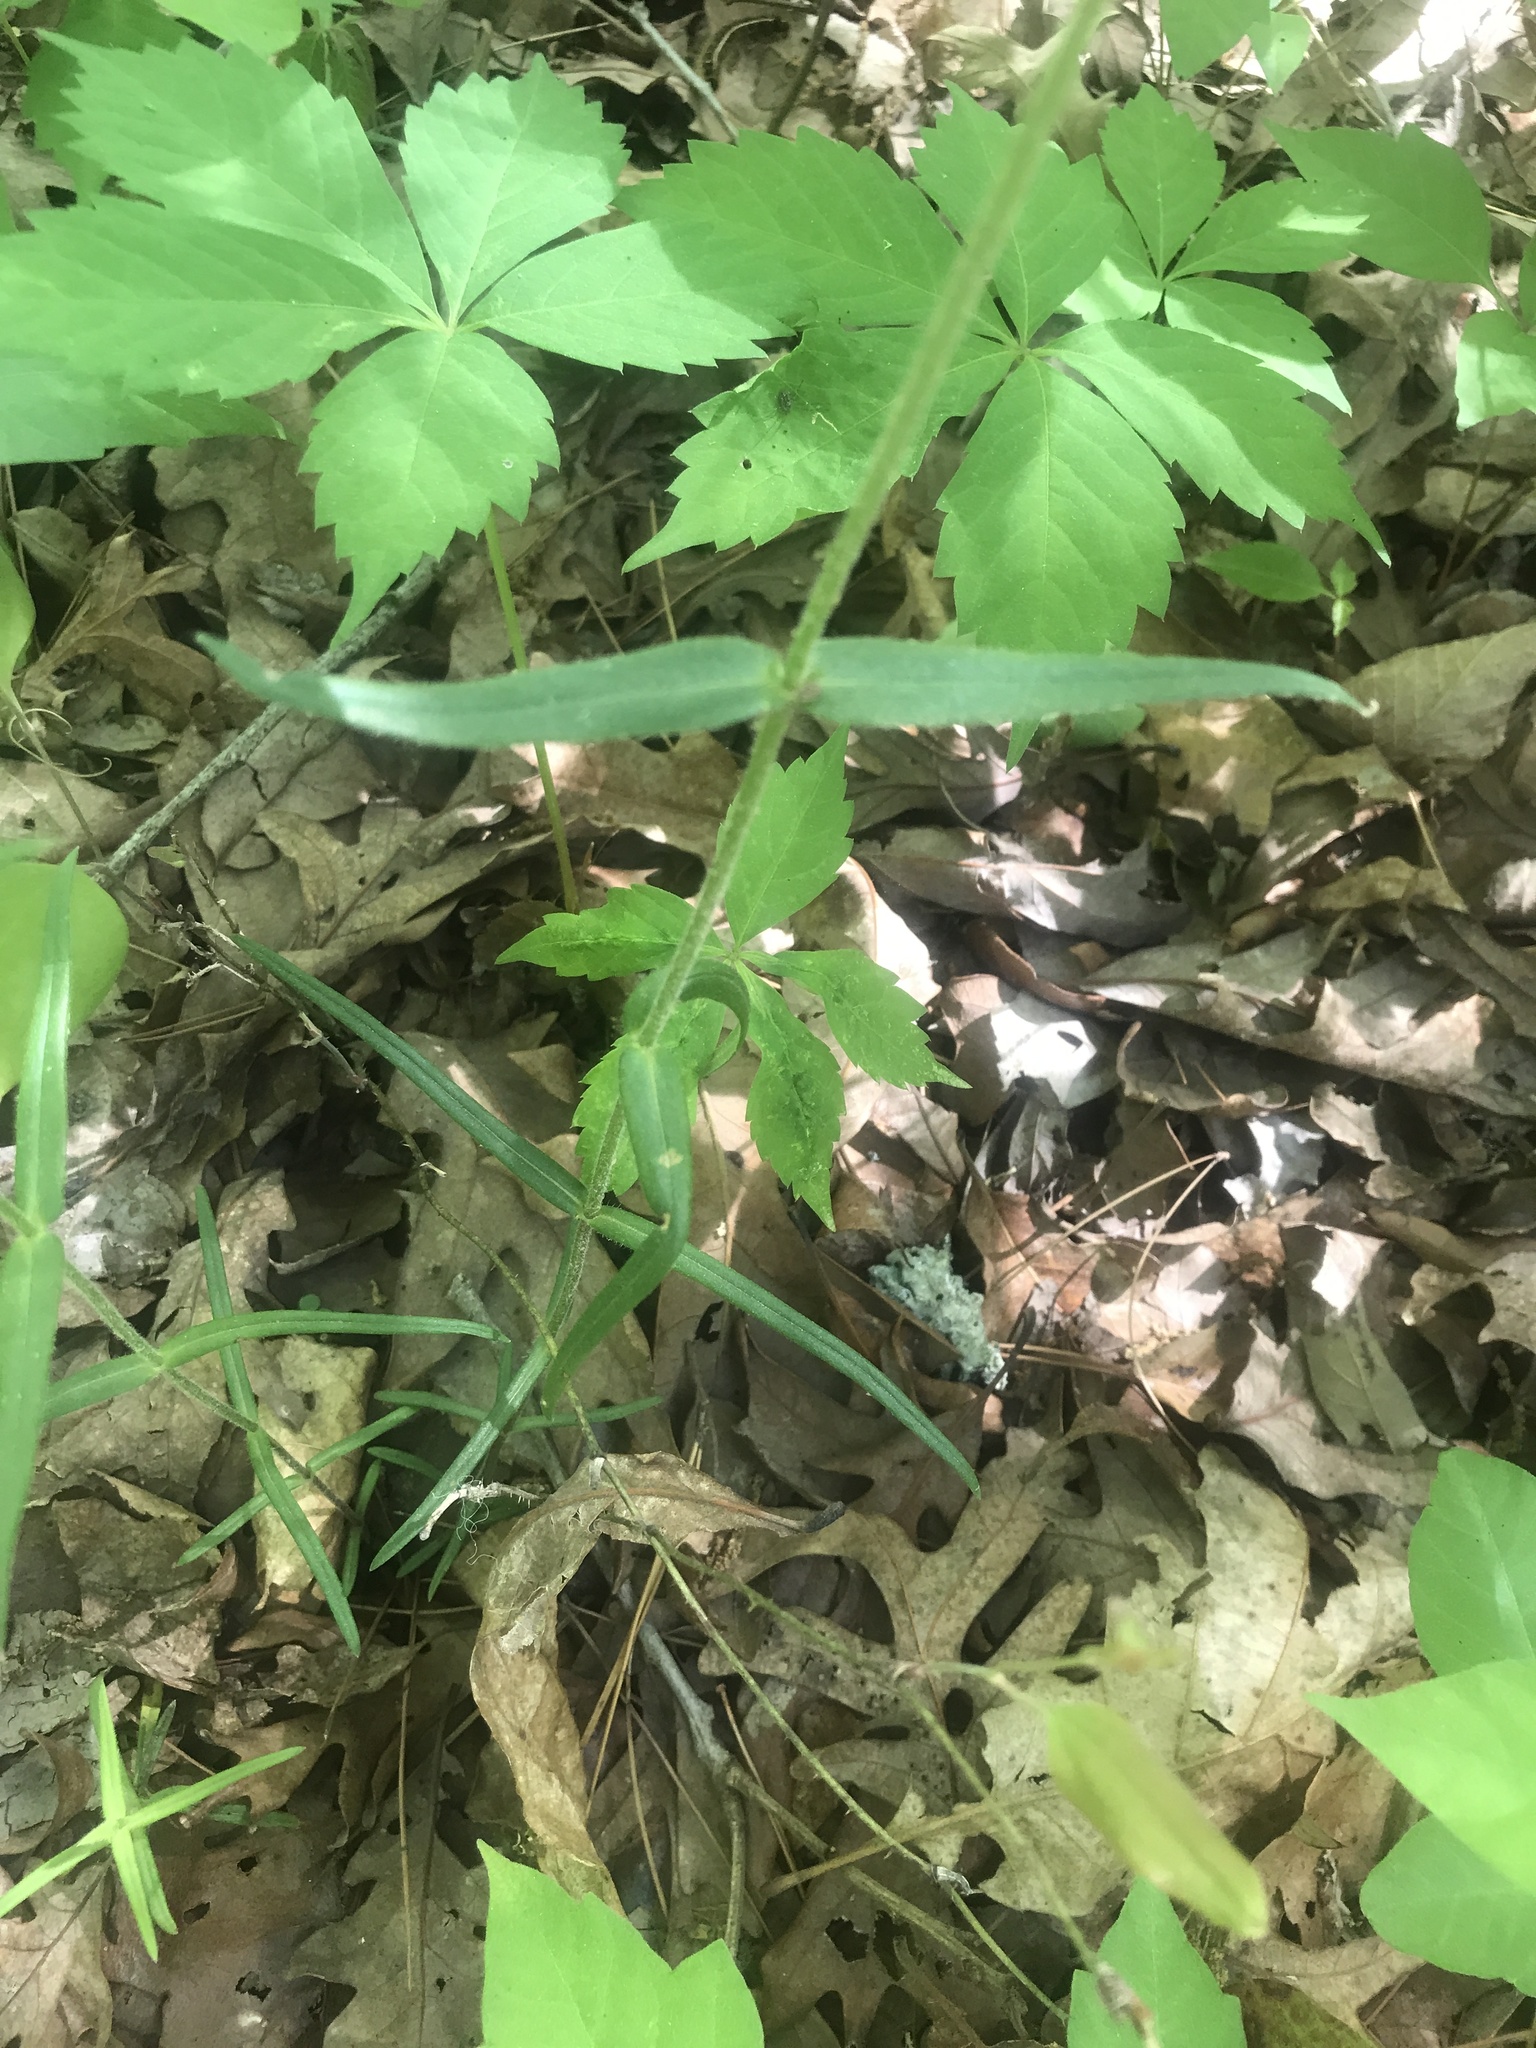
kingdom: Plantae
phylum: Tracheophyta
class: Magnoliopsida
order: Ericales
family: Polemoniaceae
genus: Phlox
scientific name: Phlox pilosa
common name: Prairie phlox
